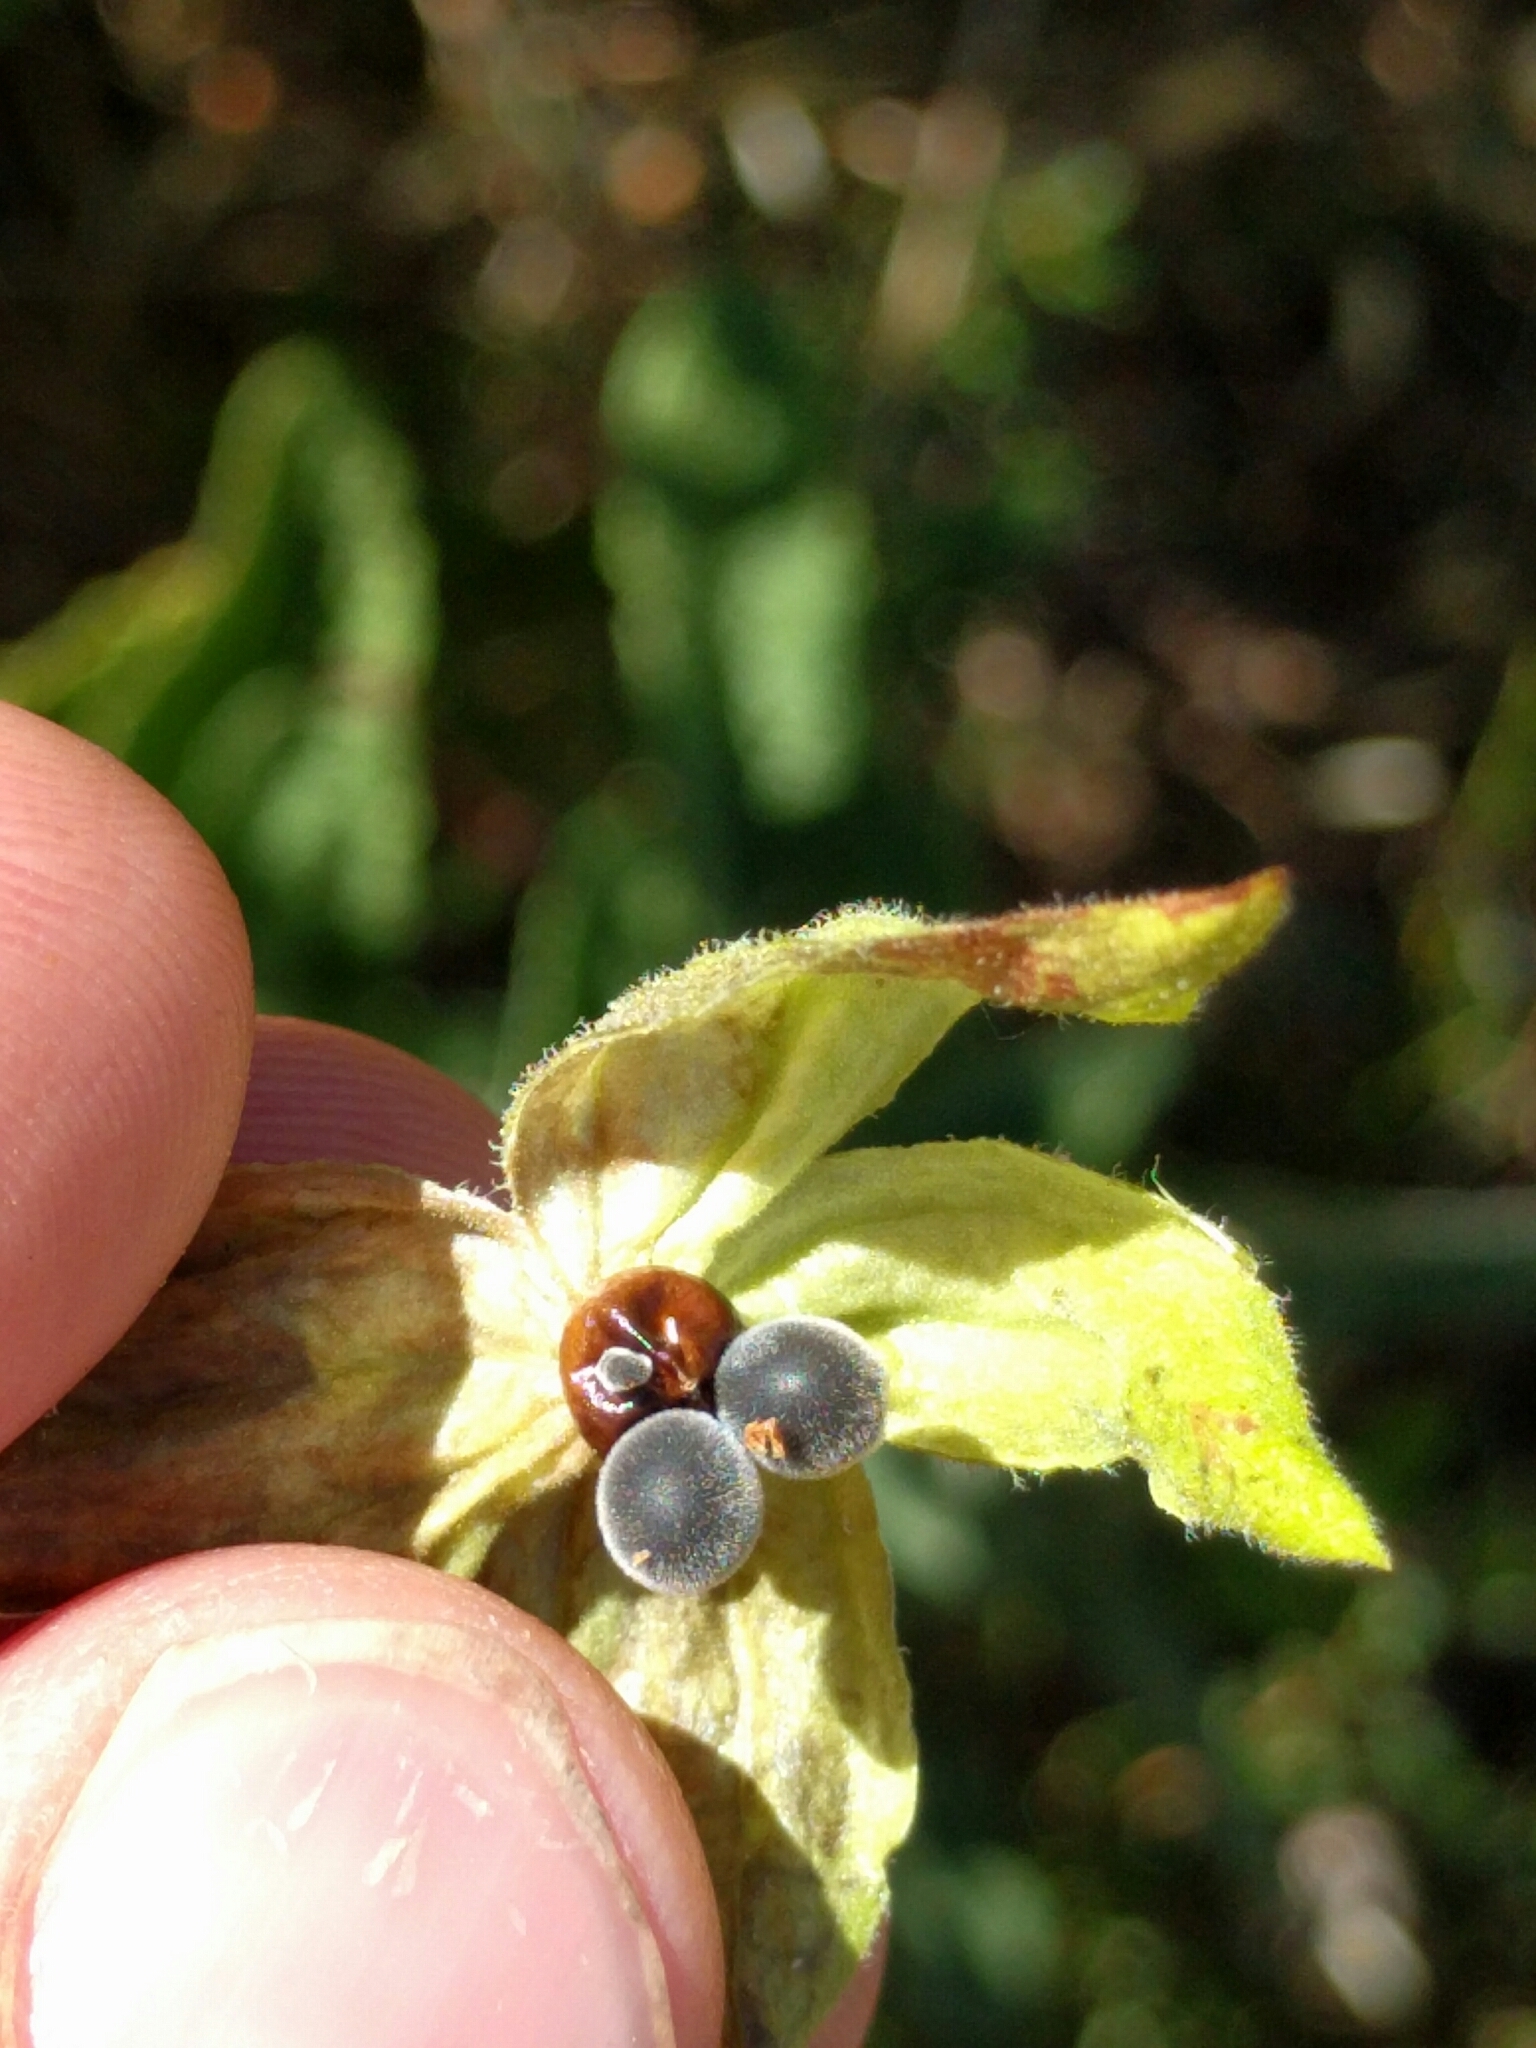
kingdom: Plantae
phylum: Tracheophyta
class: Magnoliopsida
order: Lamiales
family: Lamiaceae
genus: Lepechinia
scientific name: Lepechinia calycina
